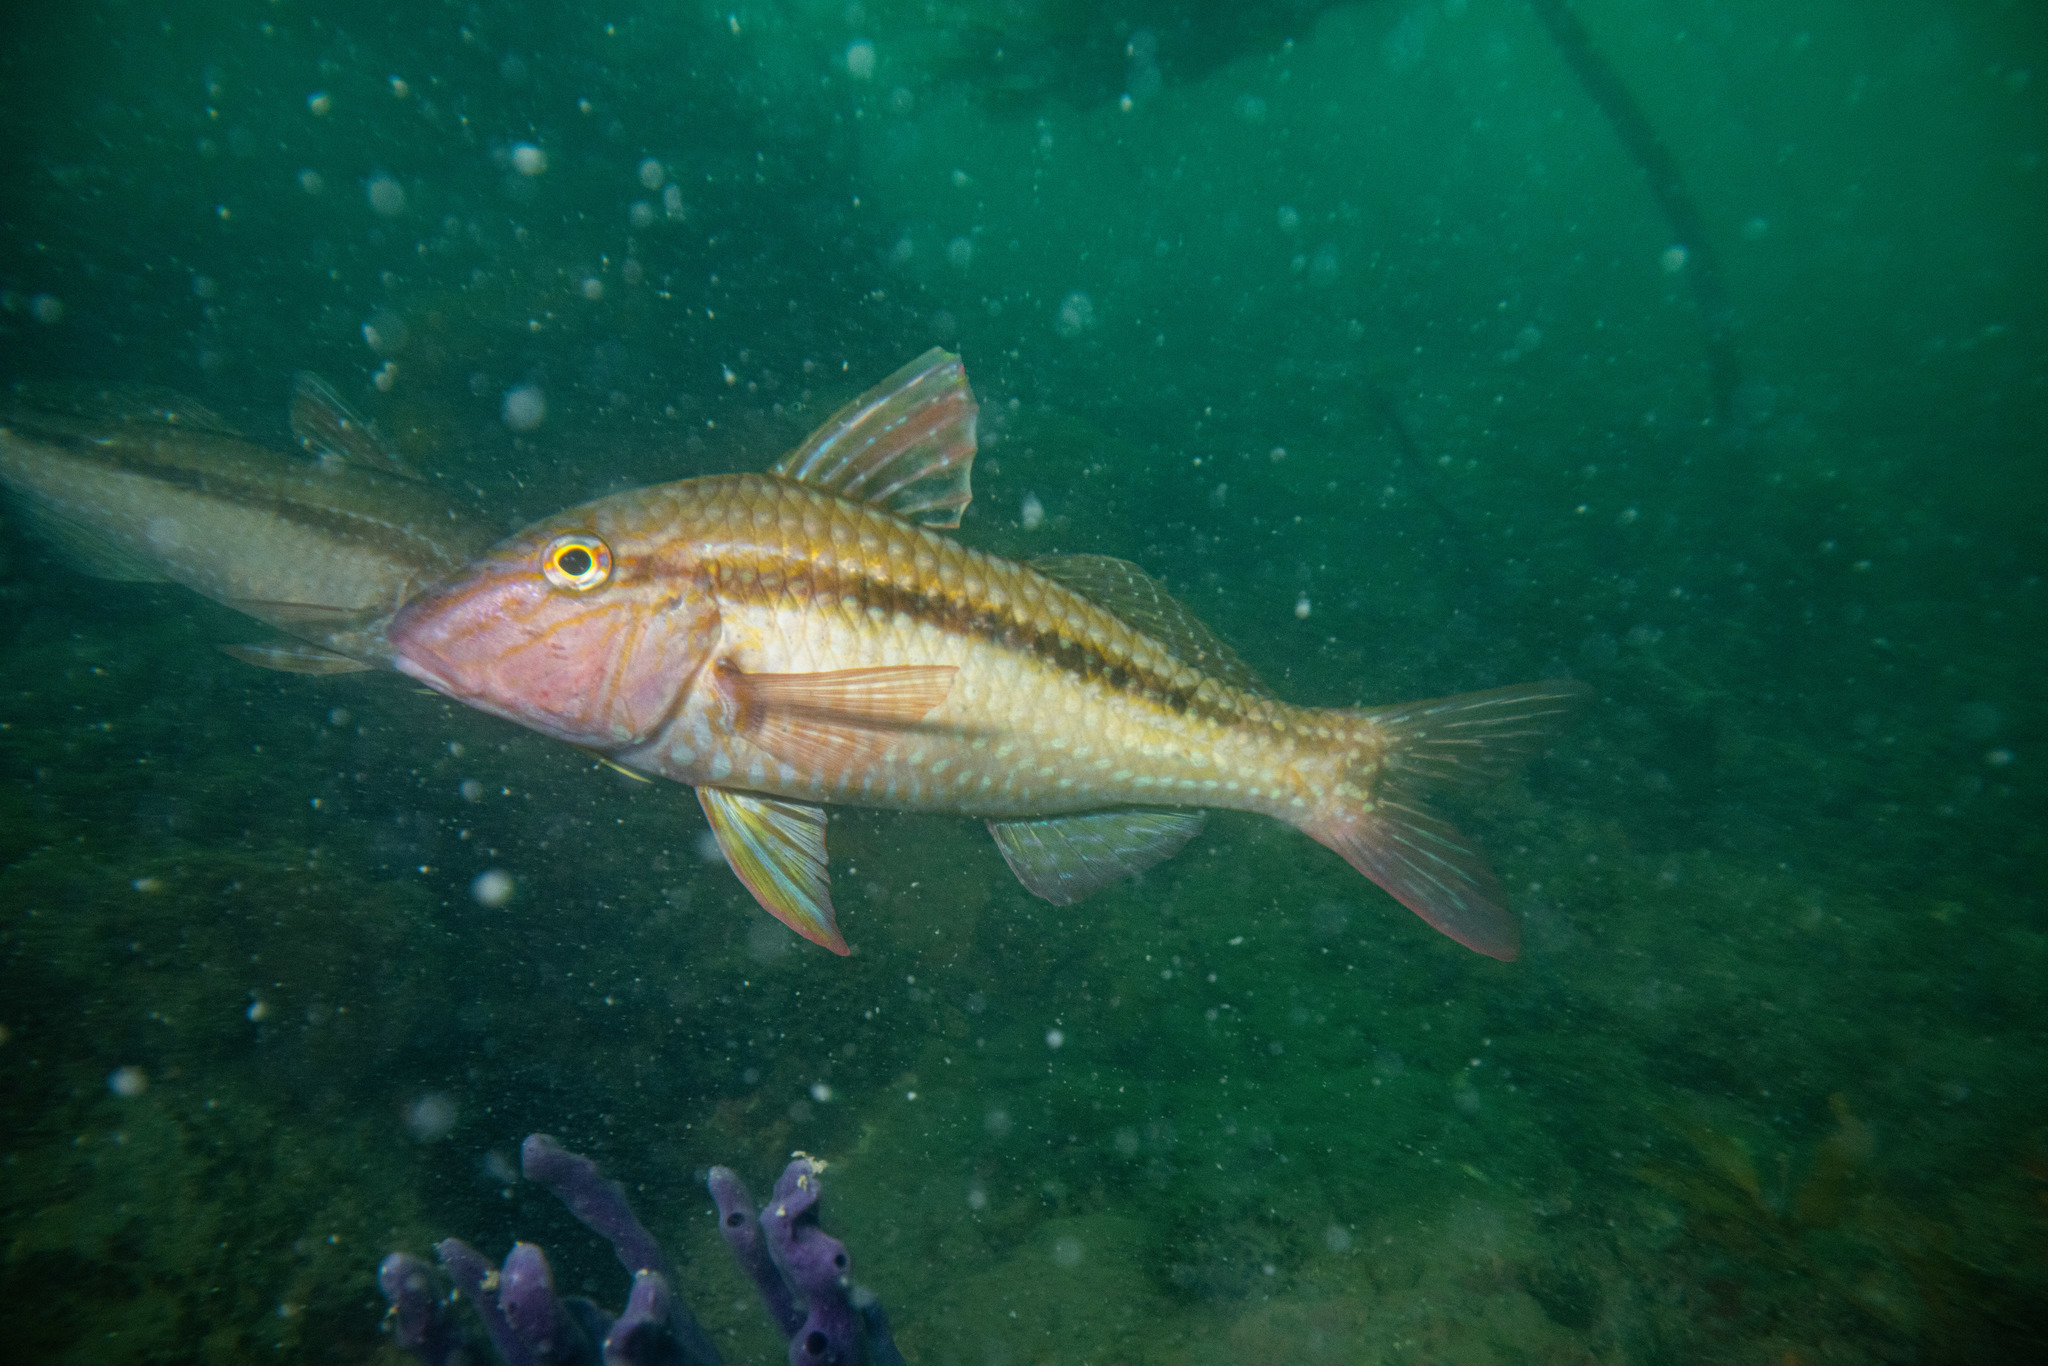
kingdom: Animalia
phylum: Chordata
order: Perciformes
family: Mullidae
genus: Upeneichthys
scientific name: Upeneichthys lineatus
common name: Red mullet
